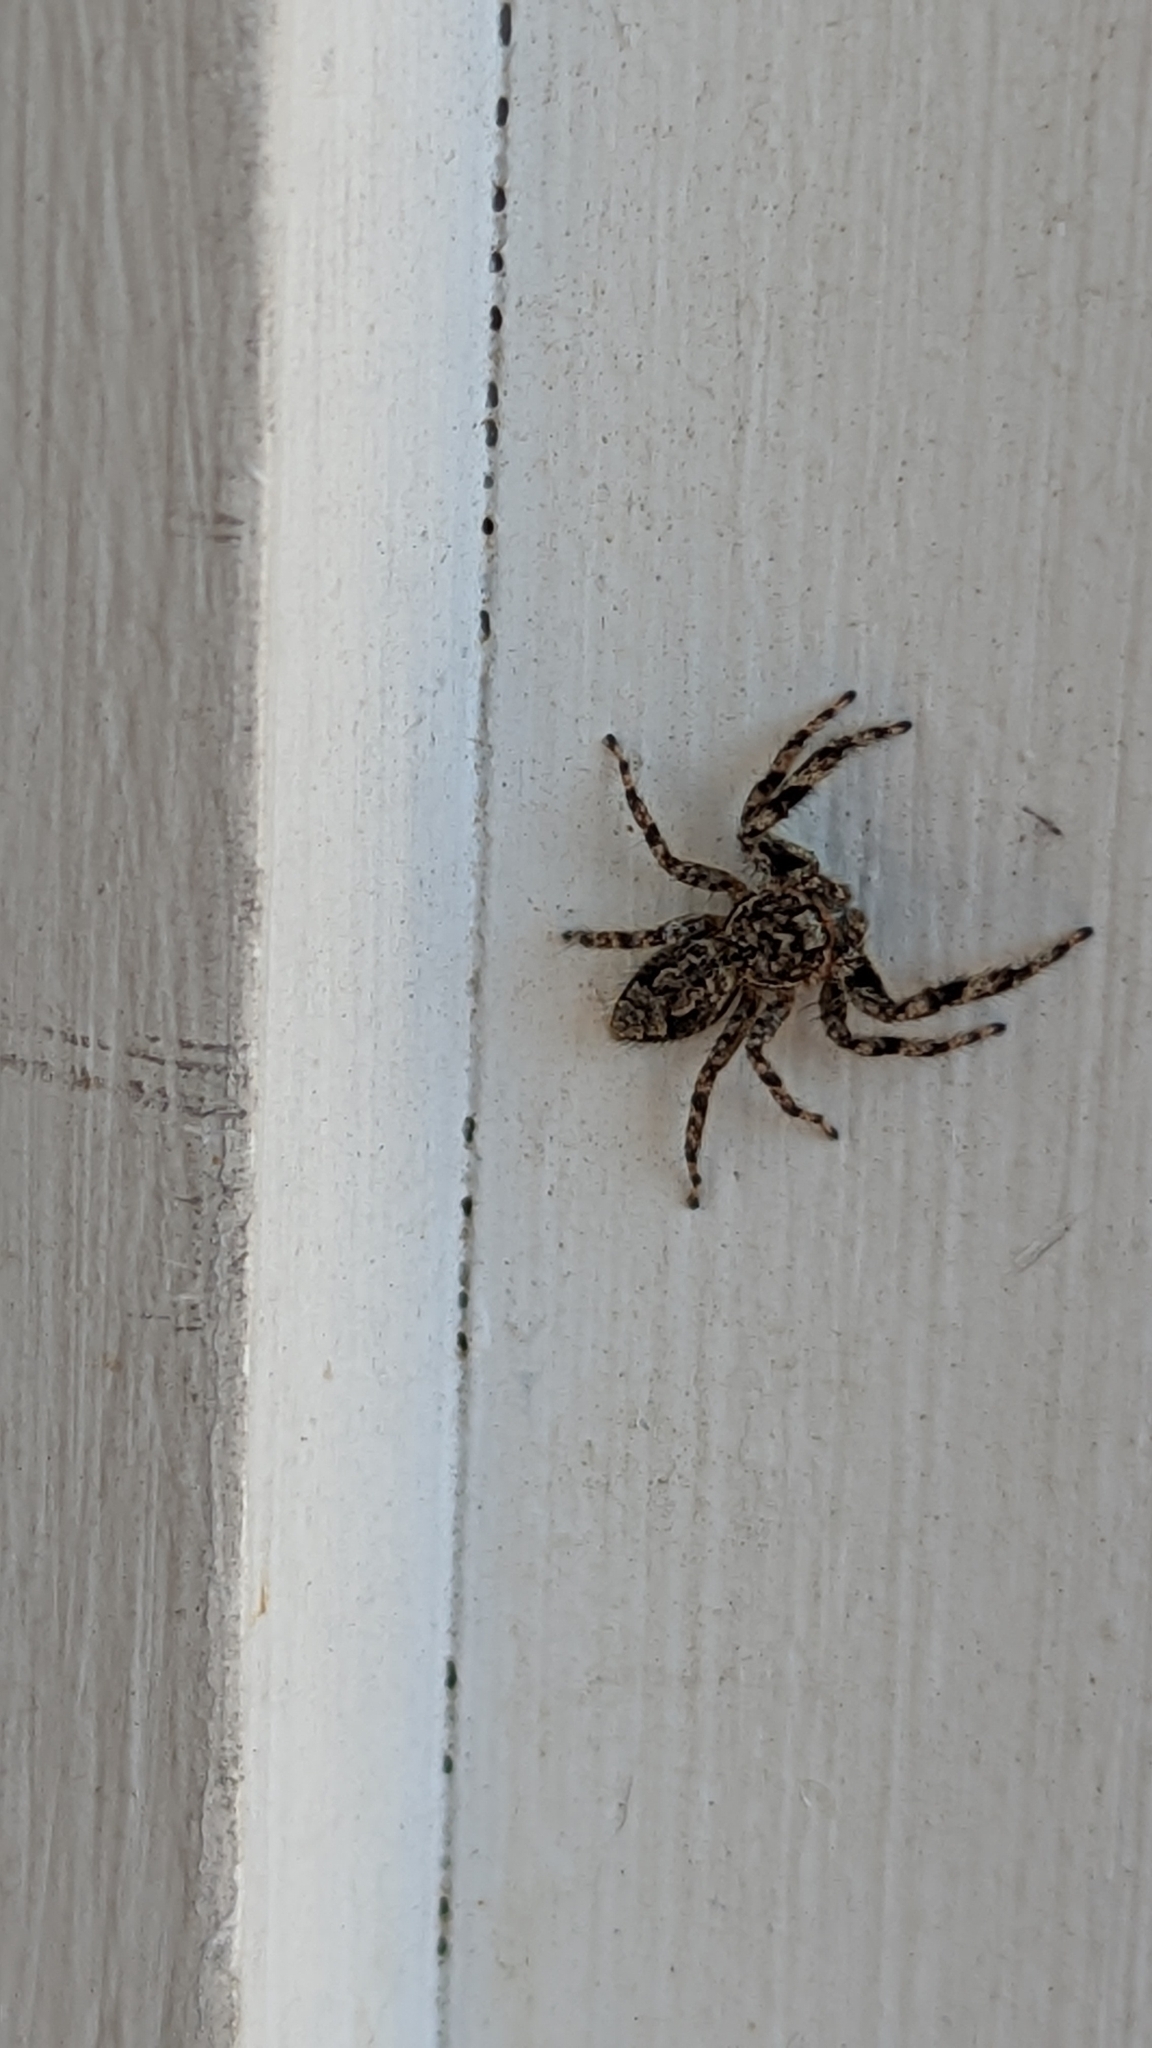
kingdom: Animalia
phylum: Arthropoda
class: Arachnida
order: Araneae
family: Salticidae
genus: Platycryptus
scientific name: Platycryptus undatus
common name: Tan jumping spider
